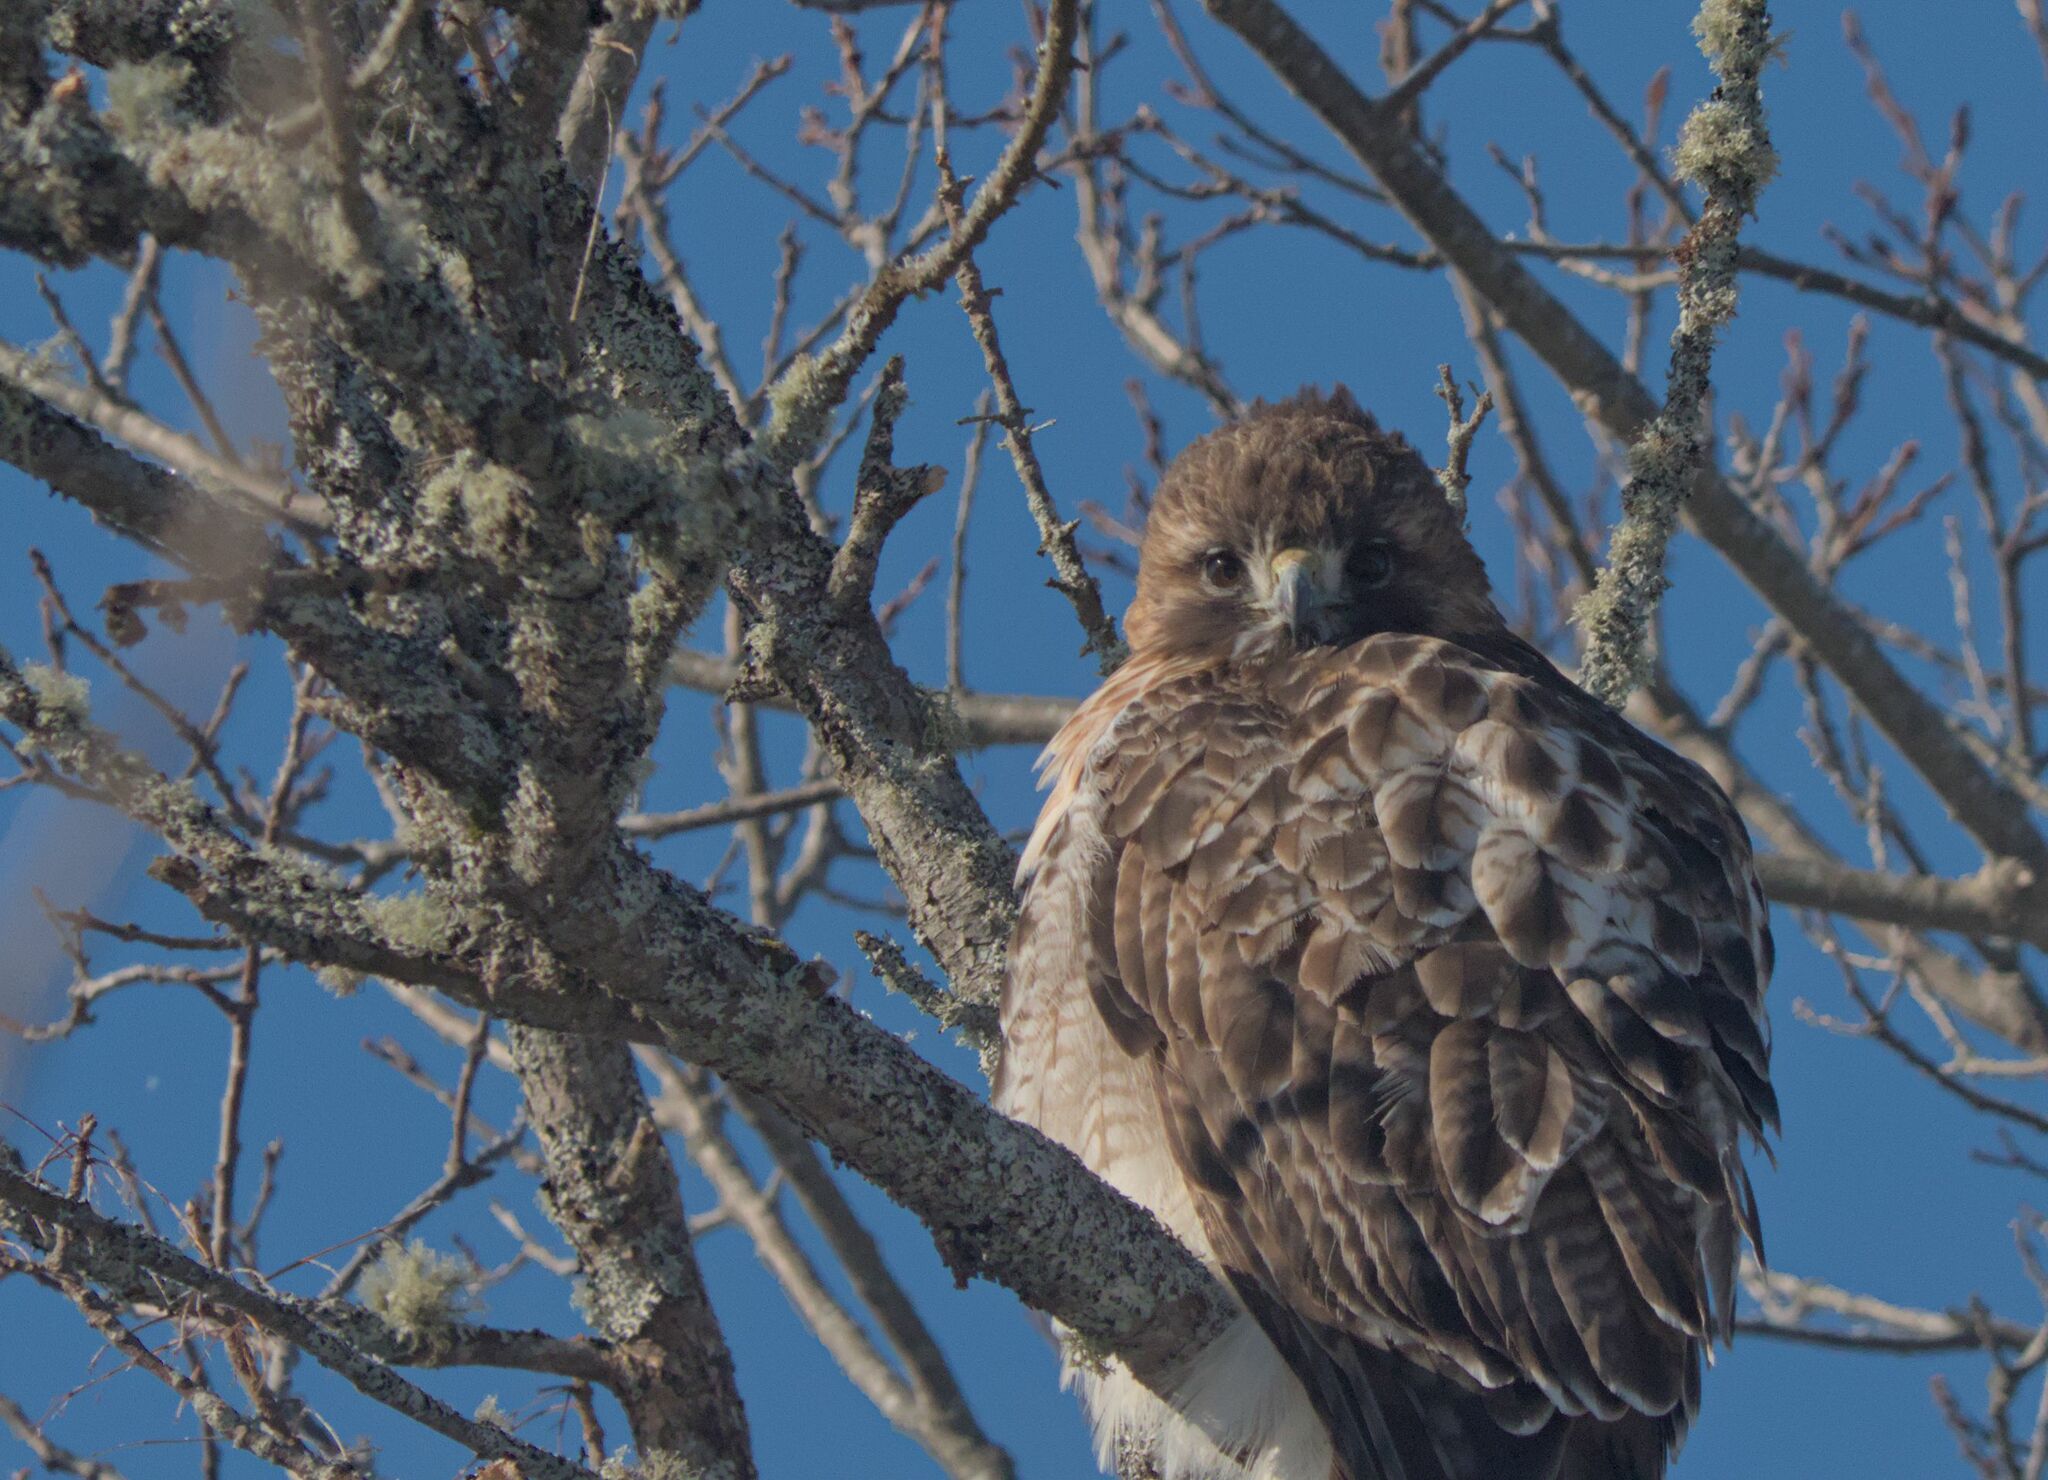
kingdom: Animalia
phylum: Chordata
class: Aves
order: Accipitriformes
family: Accipitridae
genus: Buteo
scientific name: Buteo jamaicensis
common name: Red-tailed hawk
